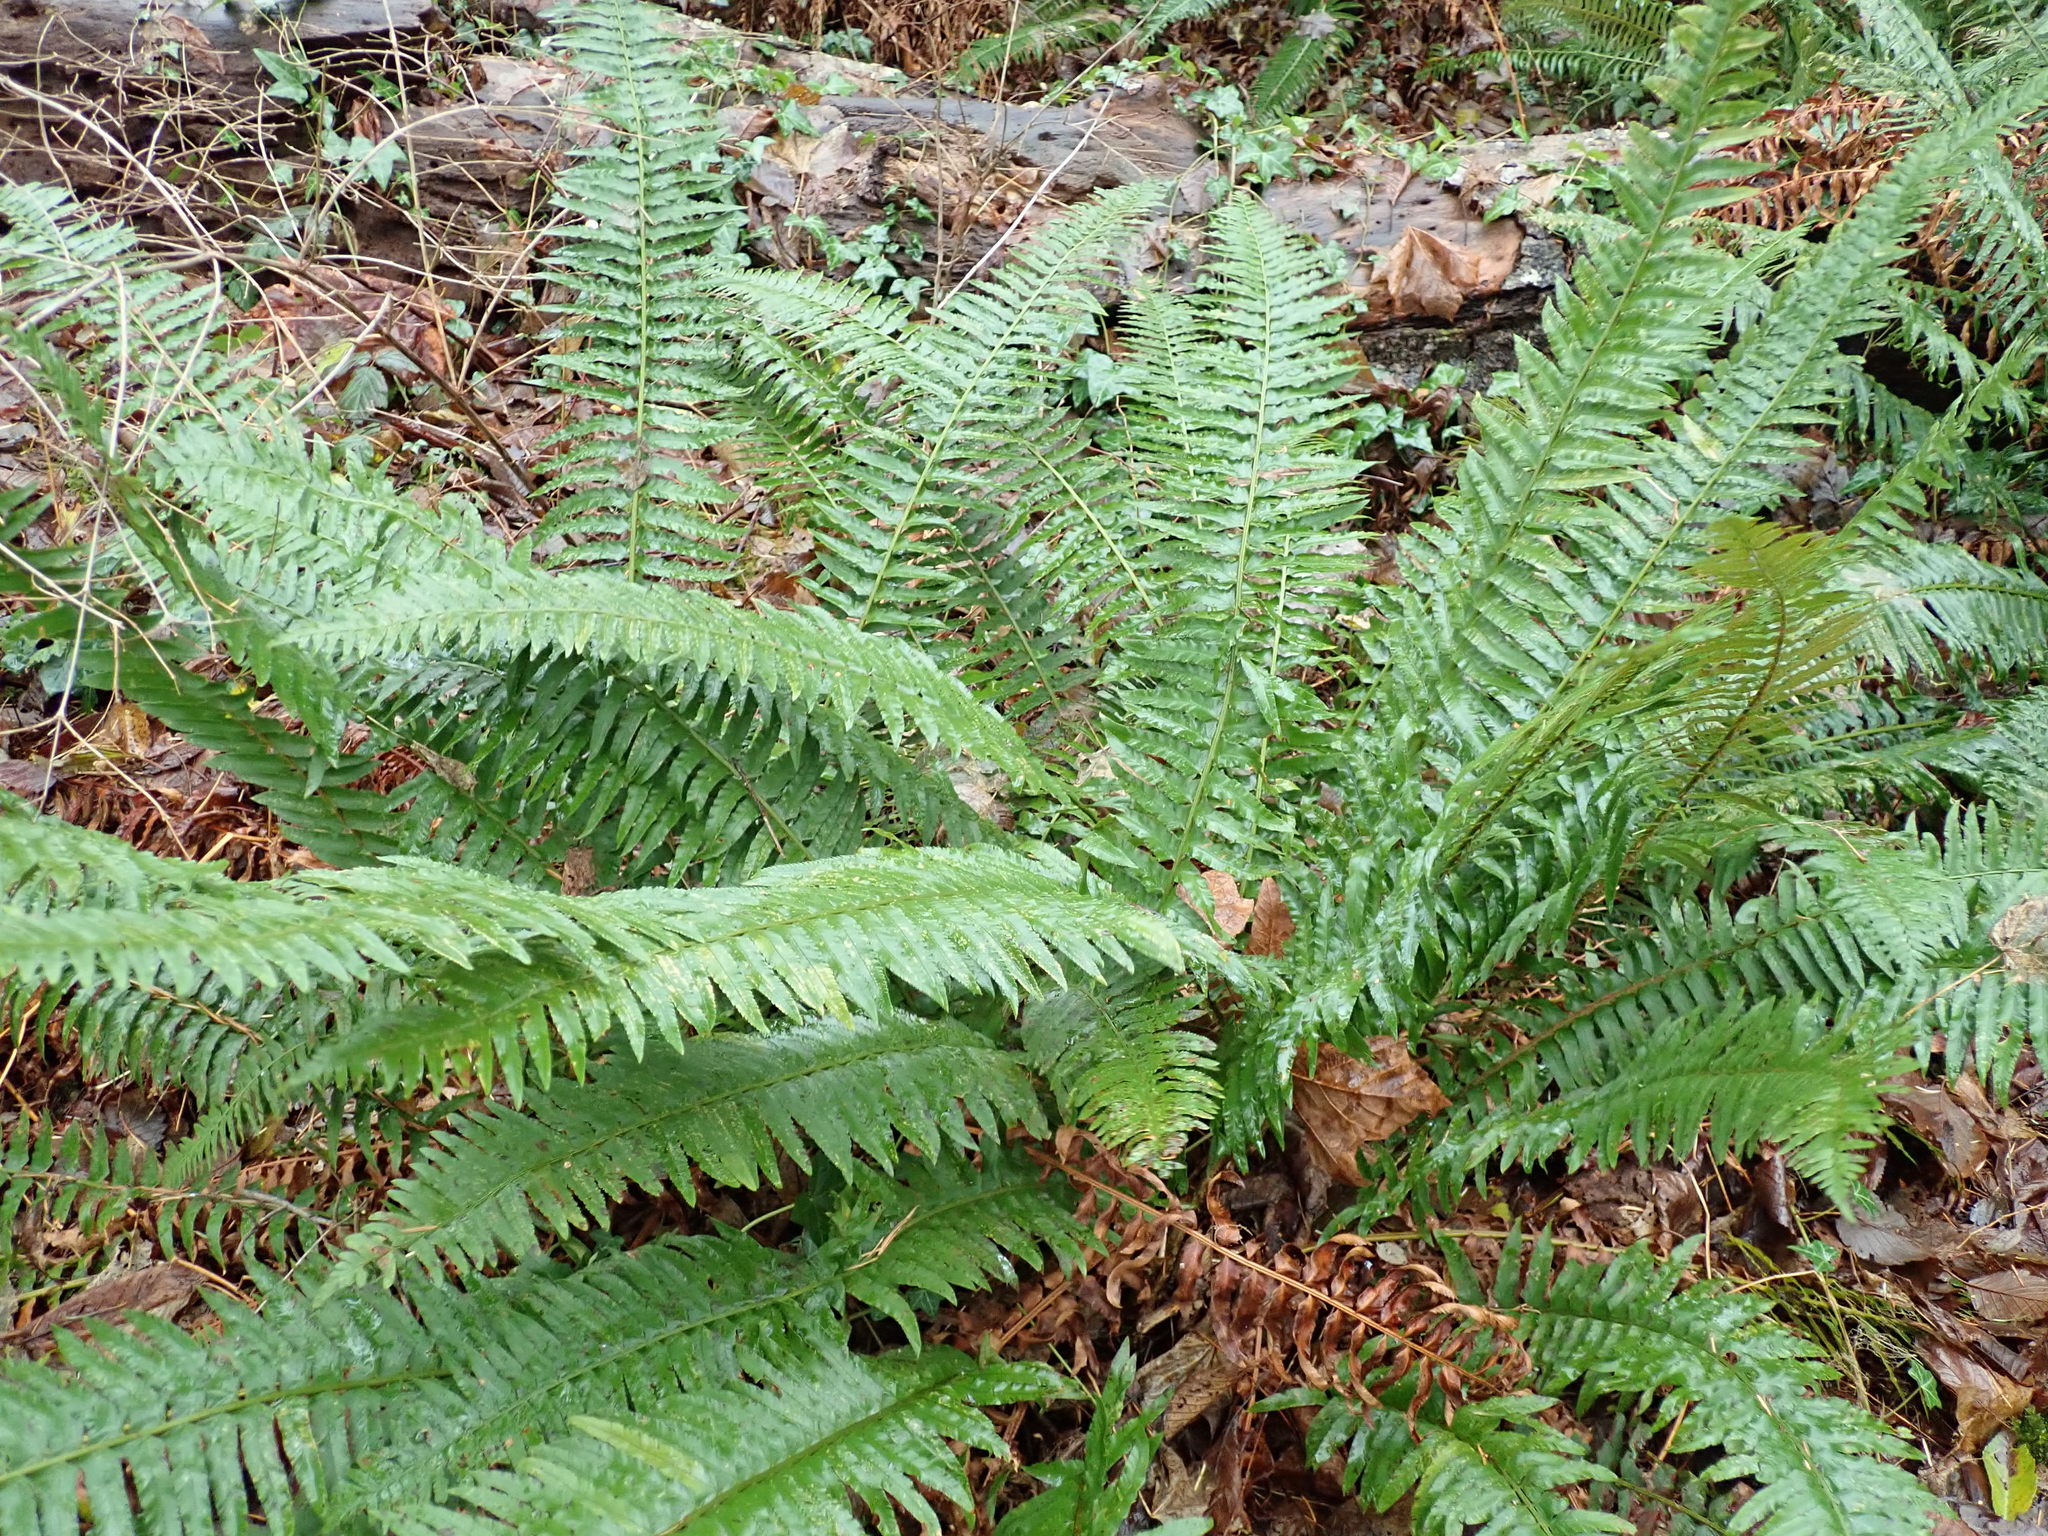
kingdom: Plantae
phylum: Tracheophyta
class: Polypodiopsida
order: Polypodiales
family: Dryopteridaceae
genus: Polystichum
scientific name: Polystichum munitum
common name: Western sword-fern
